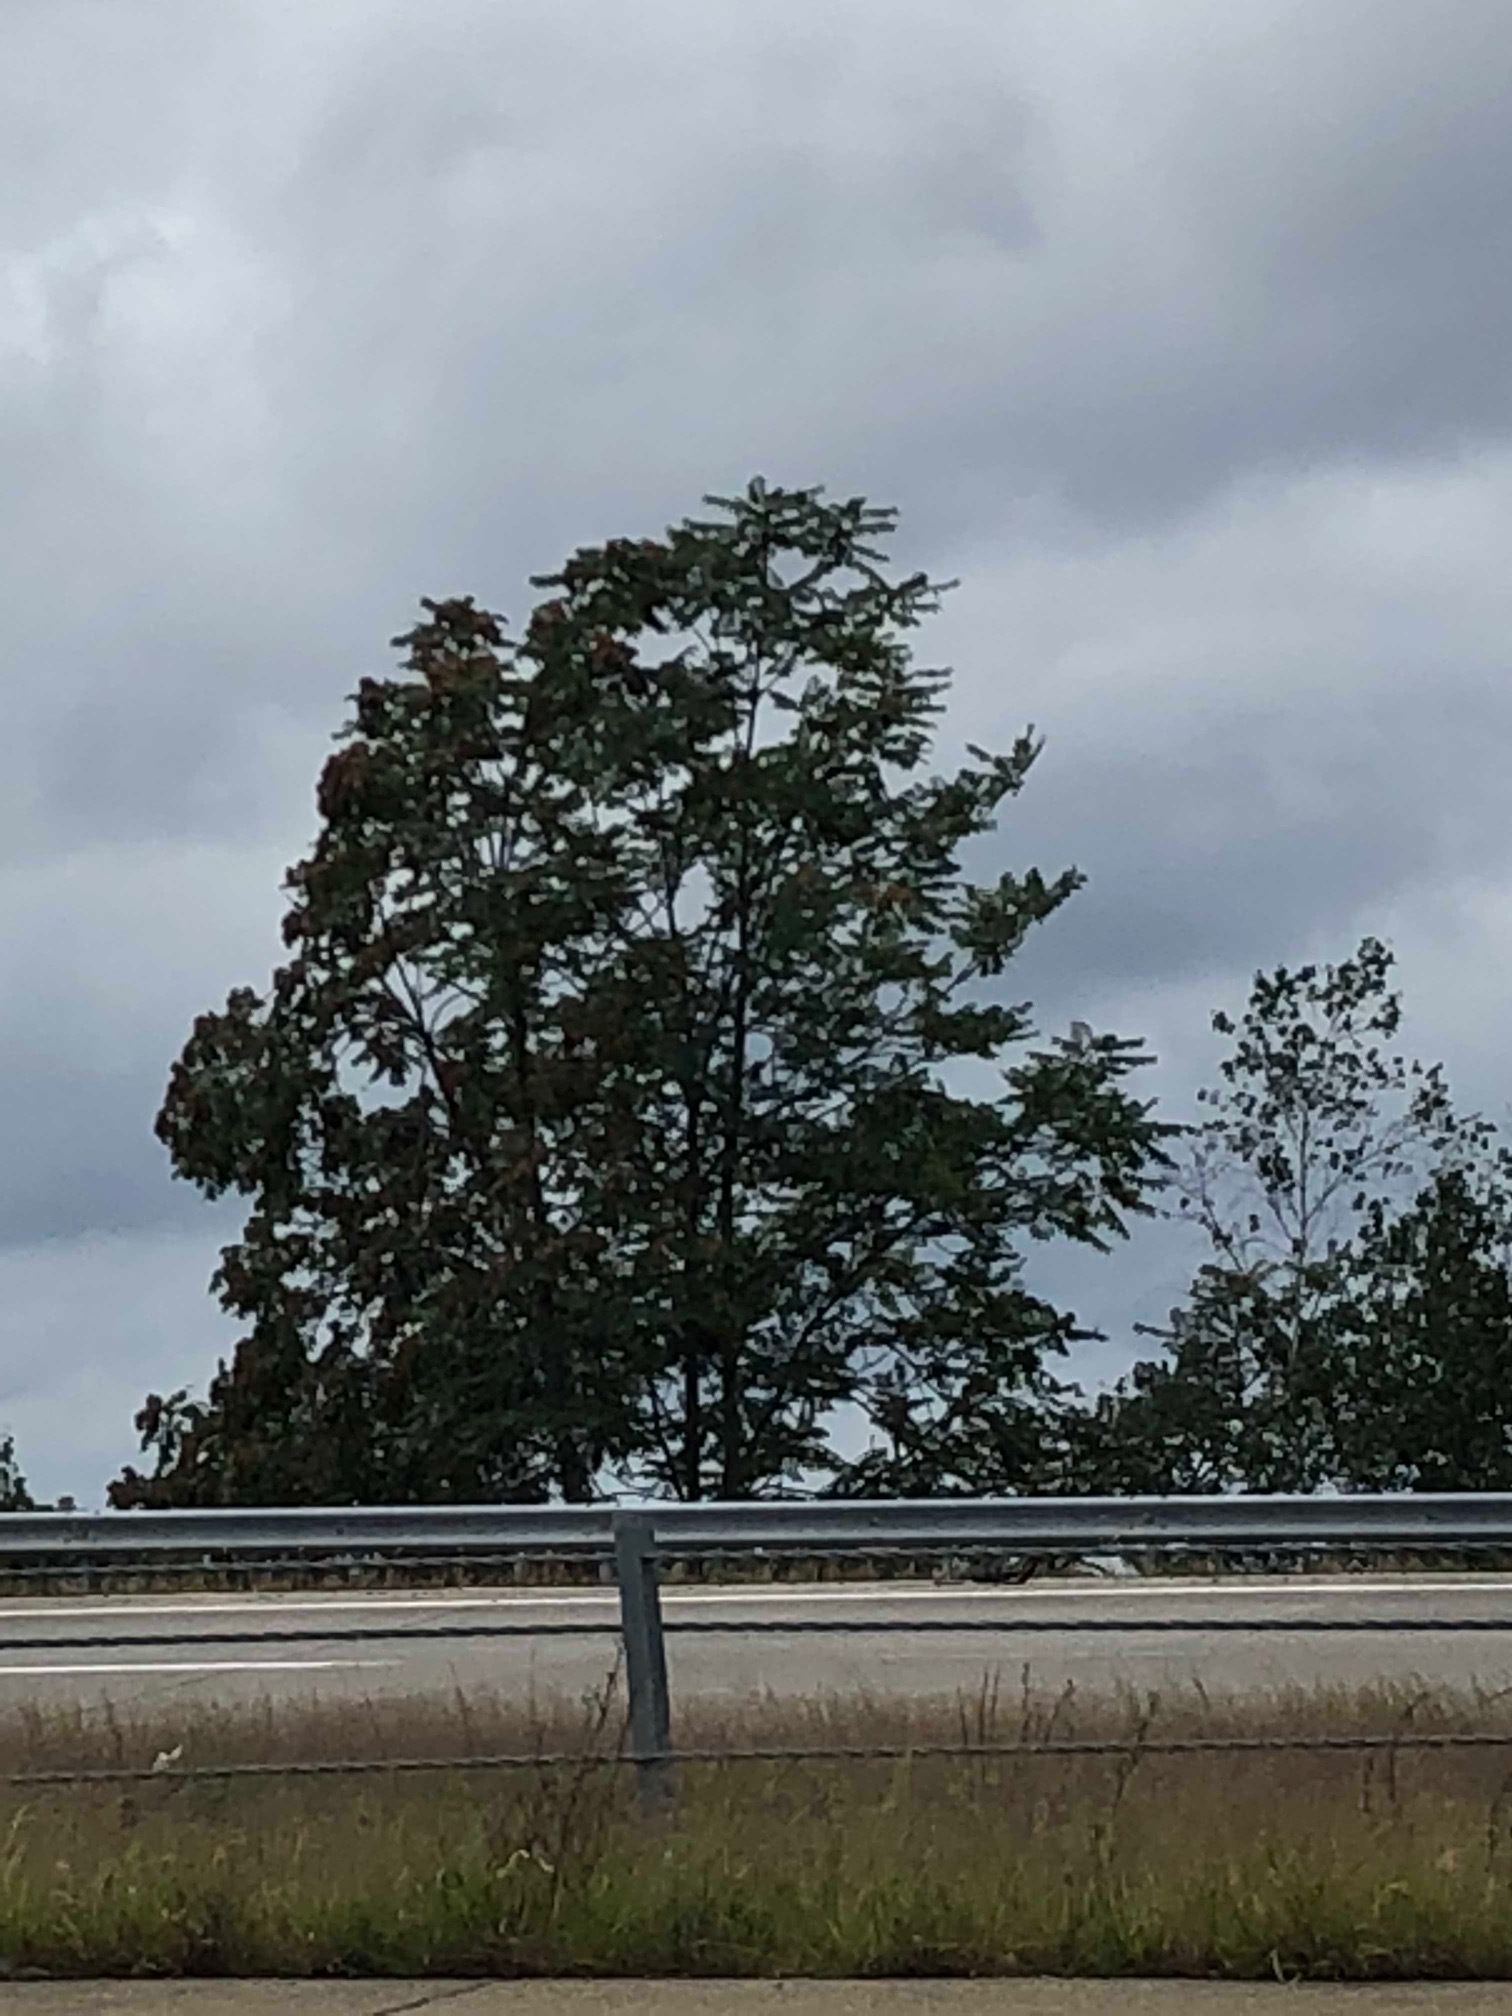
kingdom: Plantae
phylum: Tracheophyta
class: Magnoliopsida
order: Sapindales
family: Simaroubaceae
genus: Ailanthus
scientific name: Ailanthus altissima
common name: Tree-of-heaven
